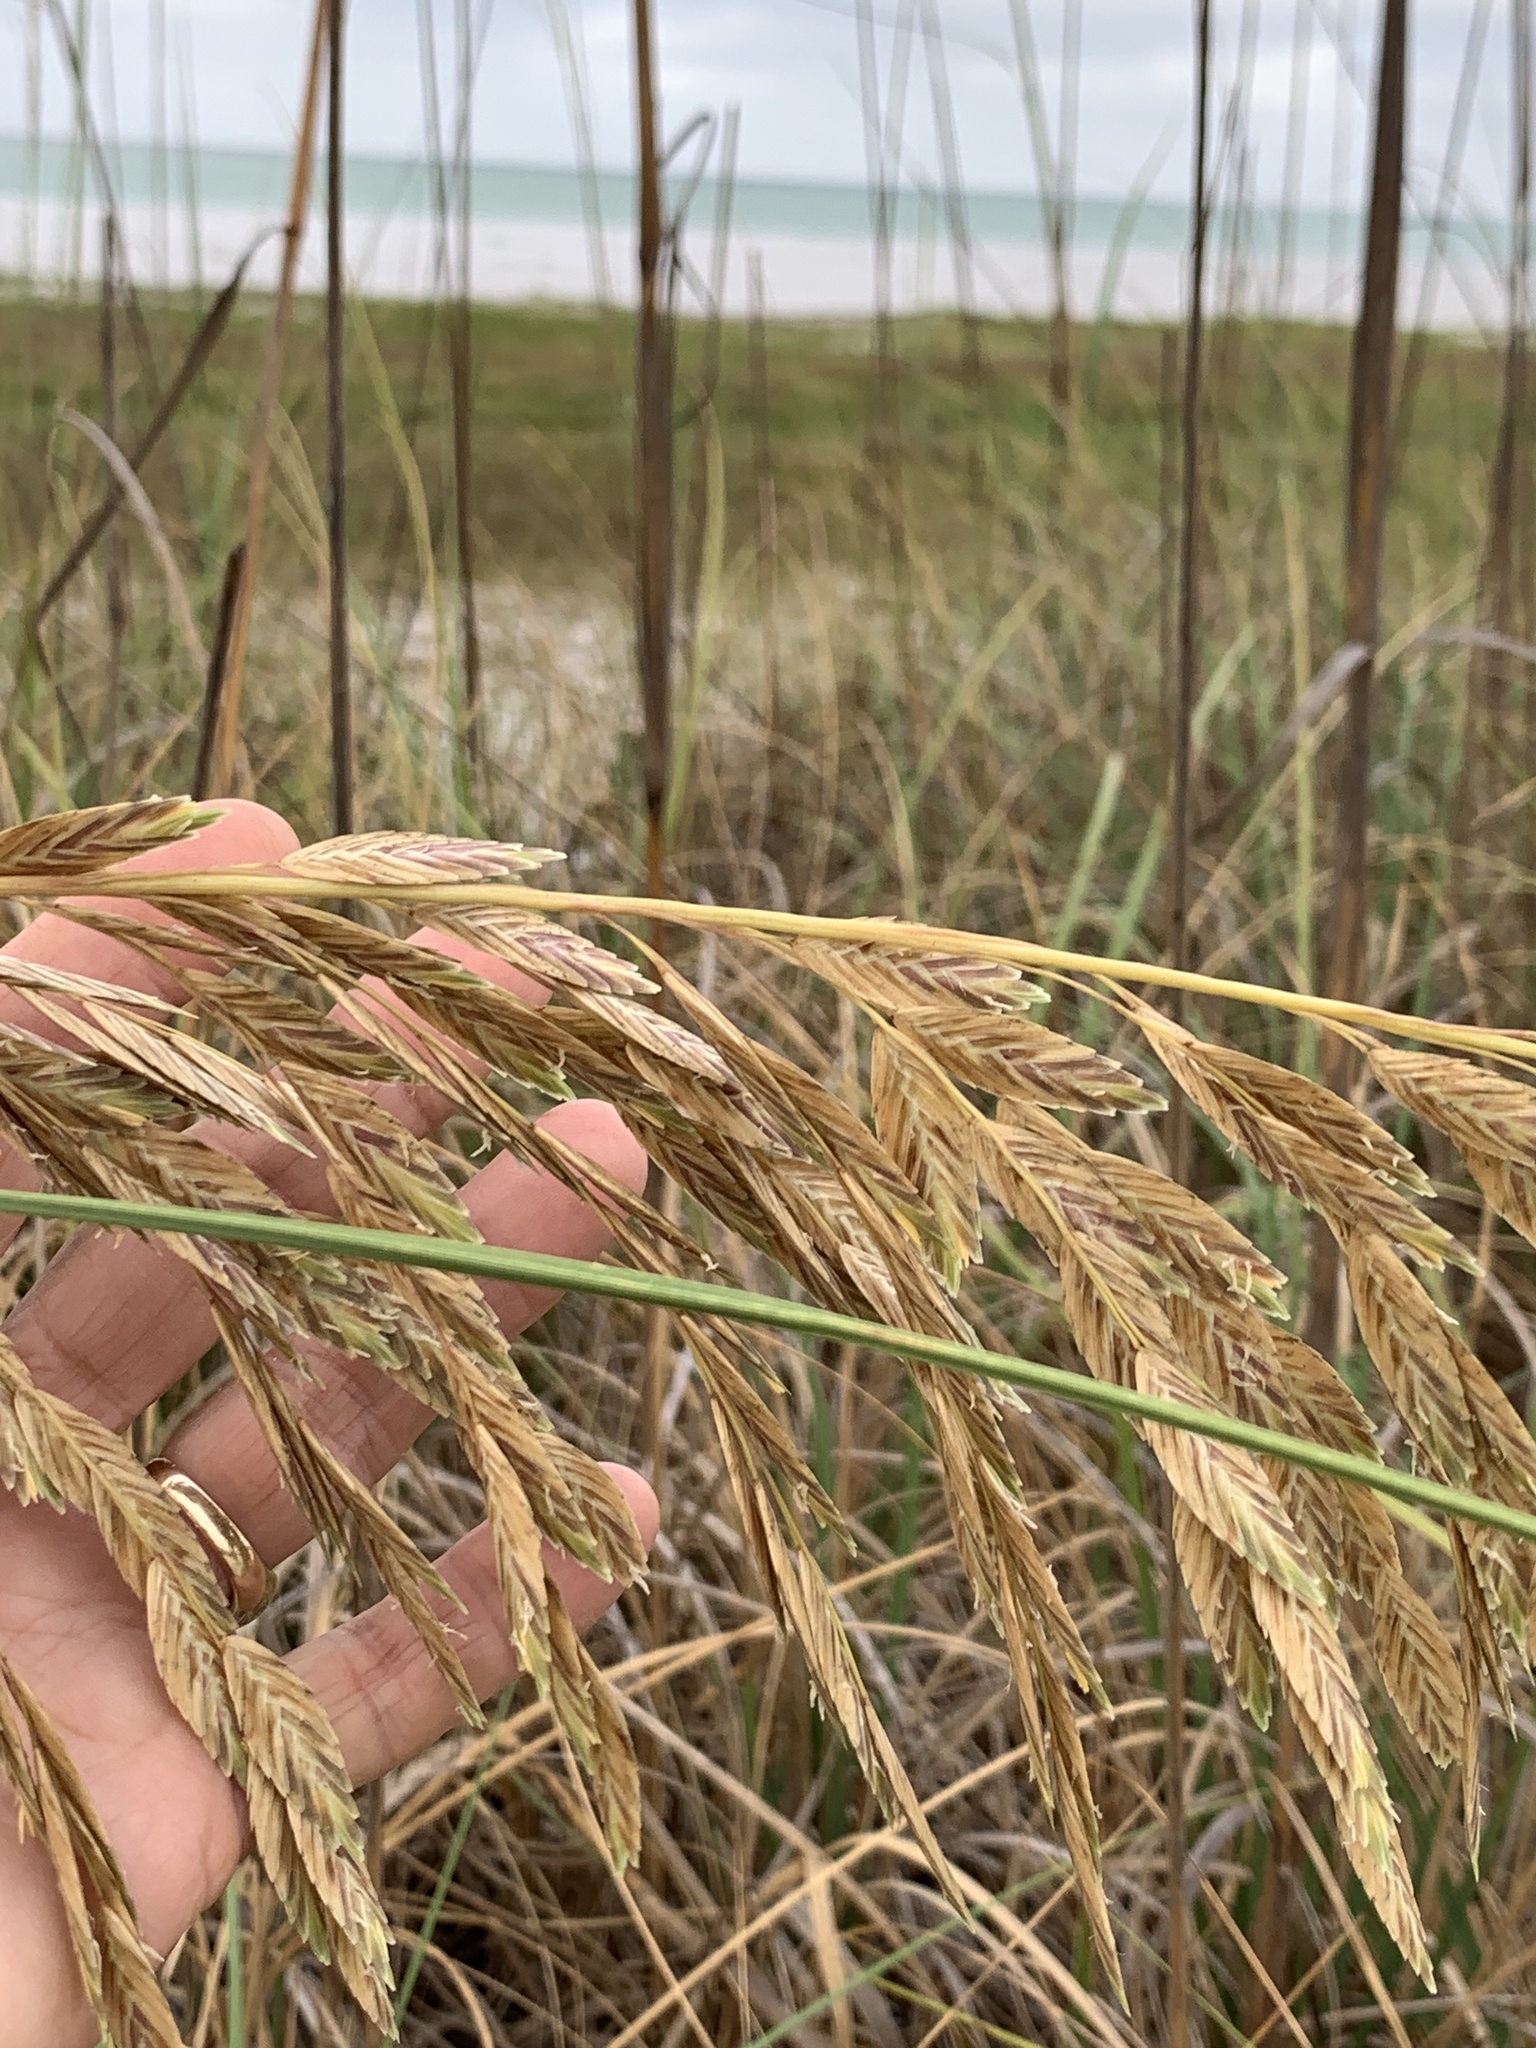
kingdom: Plantae
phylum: Tracheophyta
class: Liliopsida
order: Poales
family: Poaceae
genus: Uniola
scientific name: Uniola paniculata
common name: Seaside-oats
